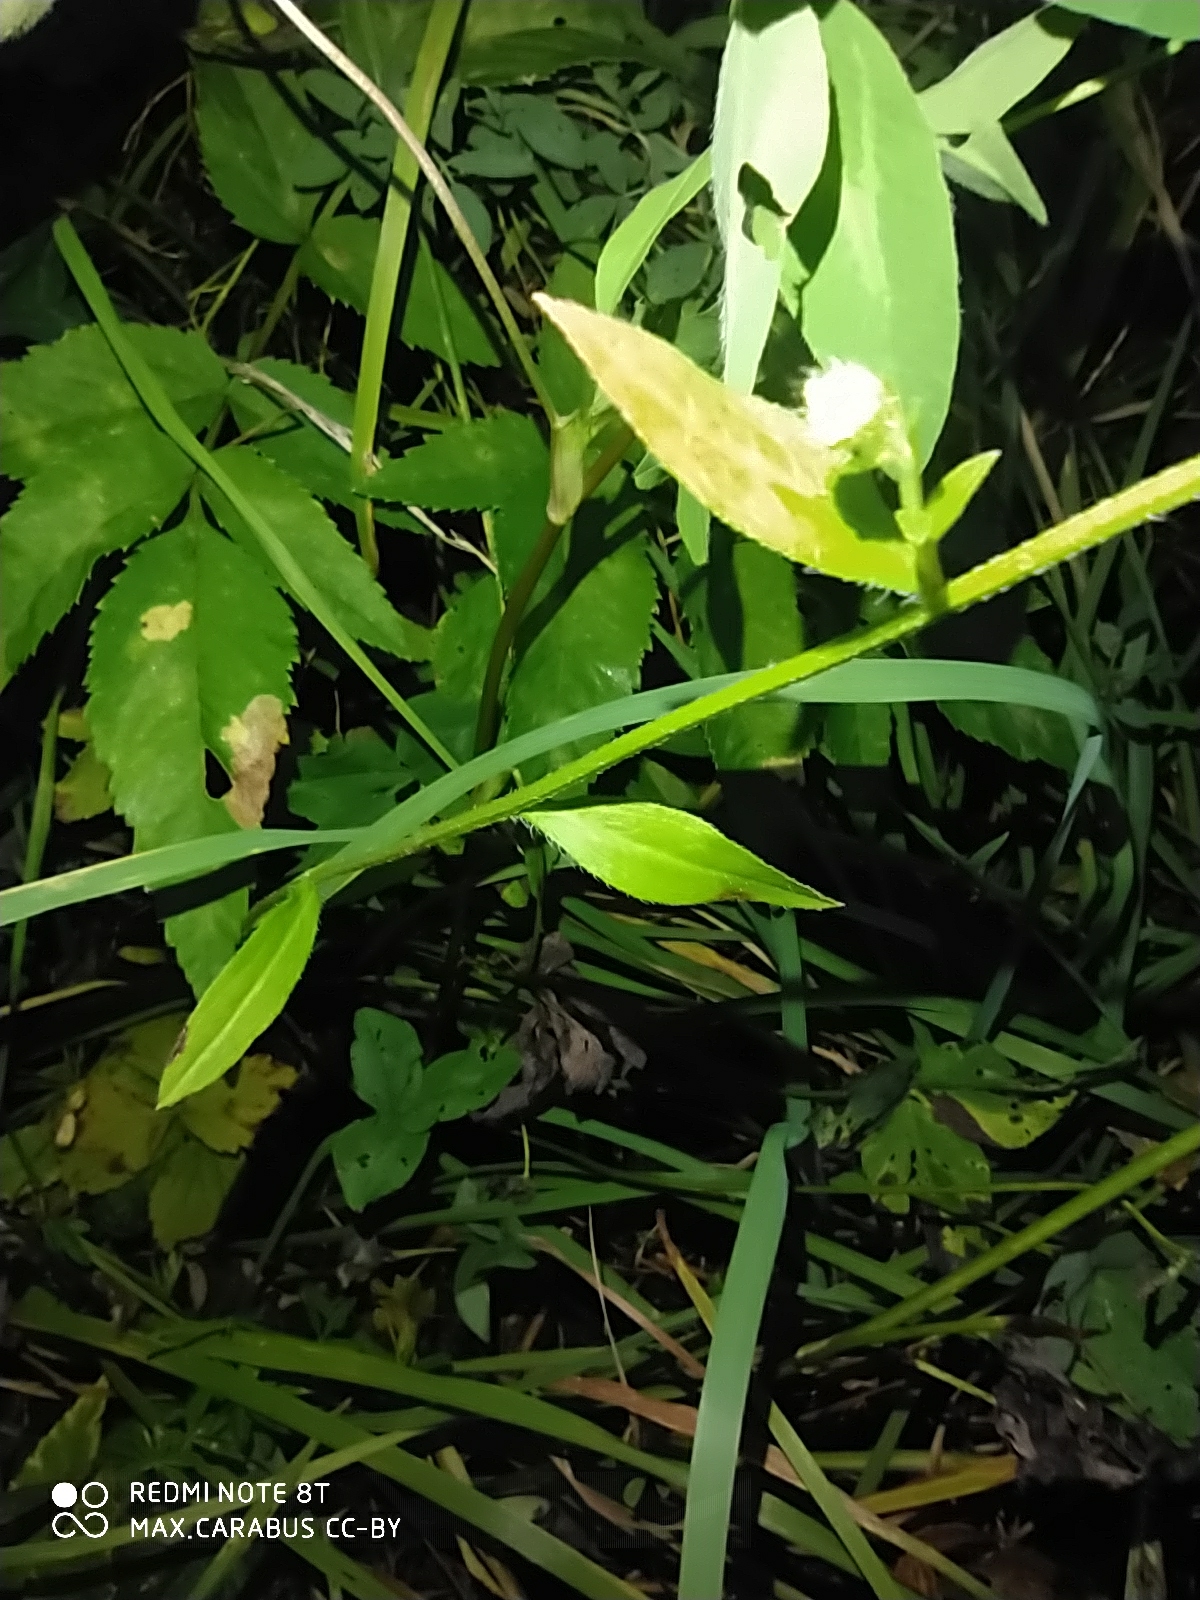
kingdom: Plantae
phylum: Tracheophyta
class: Magnoliopsida
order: Asterales
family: Asteraceae
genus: Erigeron
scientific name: Erigeron annuus
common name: Tall fleabane
